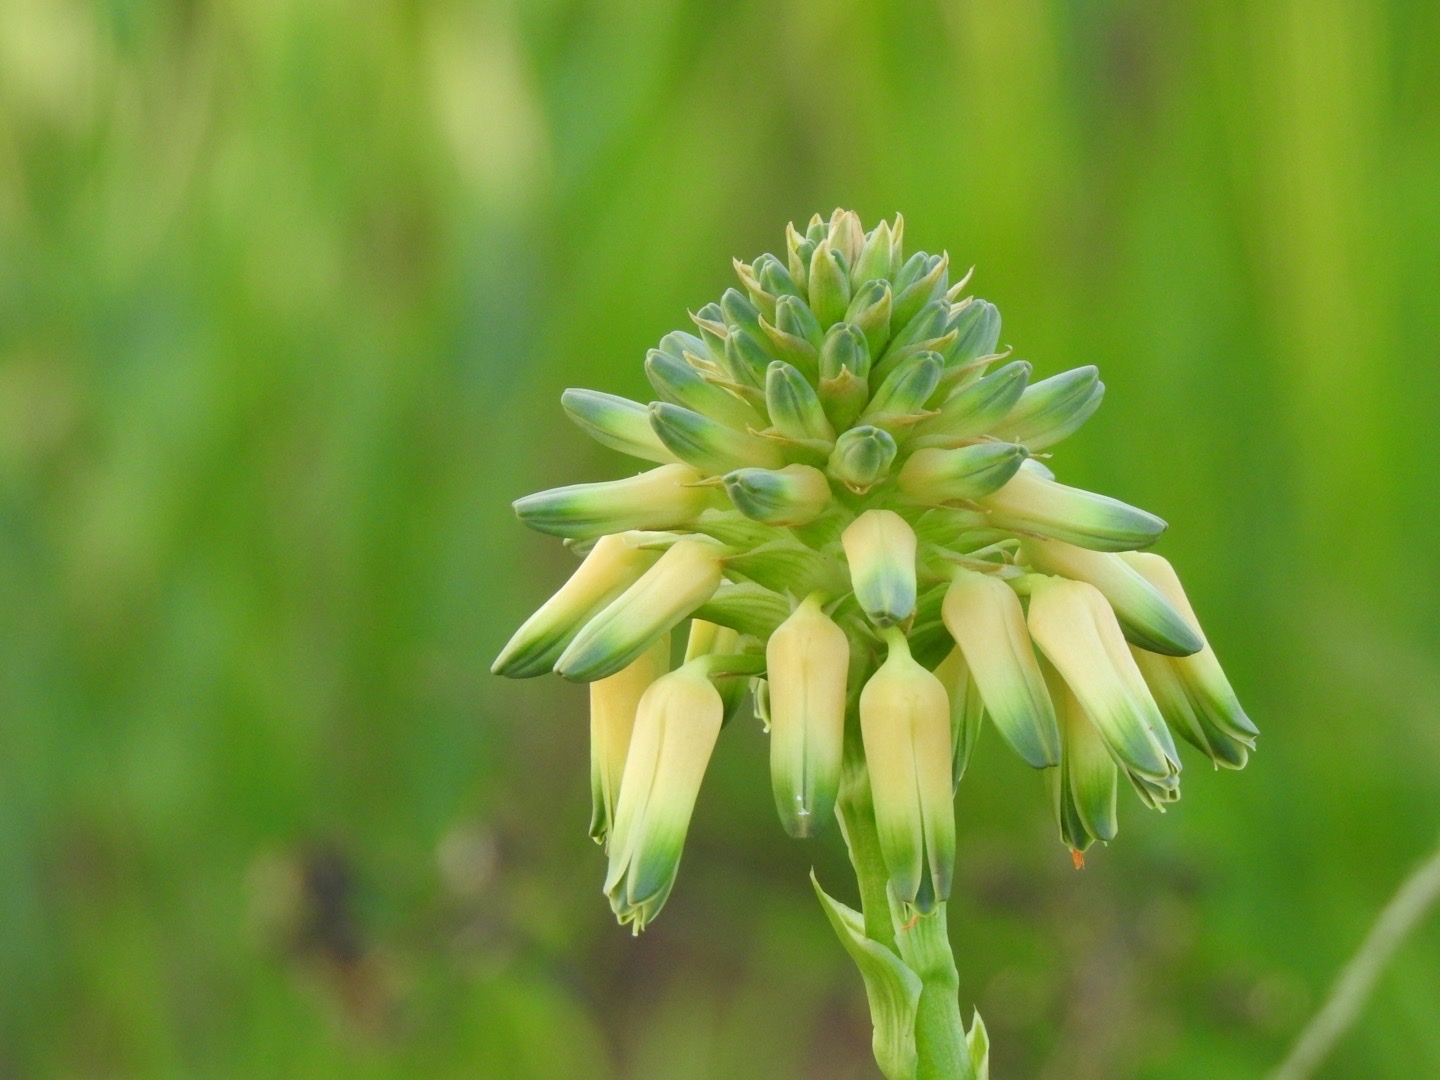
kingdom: Plantae
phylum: Tracheophyta
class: Liliopsida
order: Asparagales
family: Asphodelaceae
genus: Aloe
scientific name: Aloe ecklonis
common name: Ecklon's aloe
